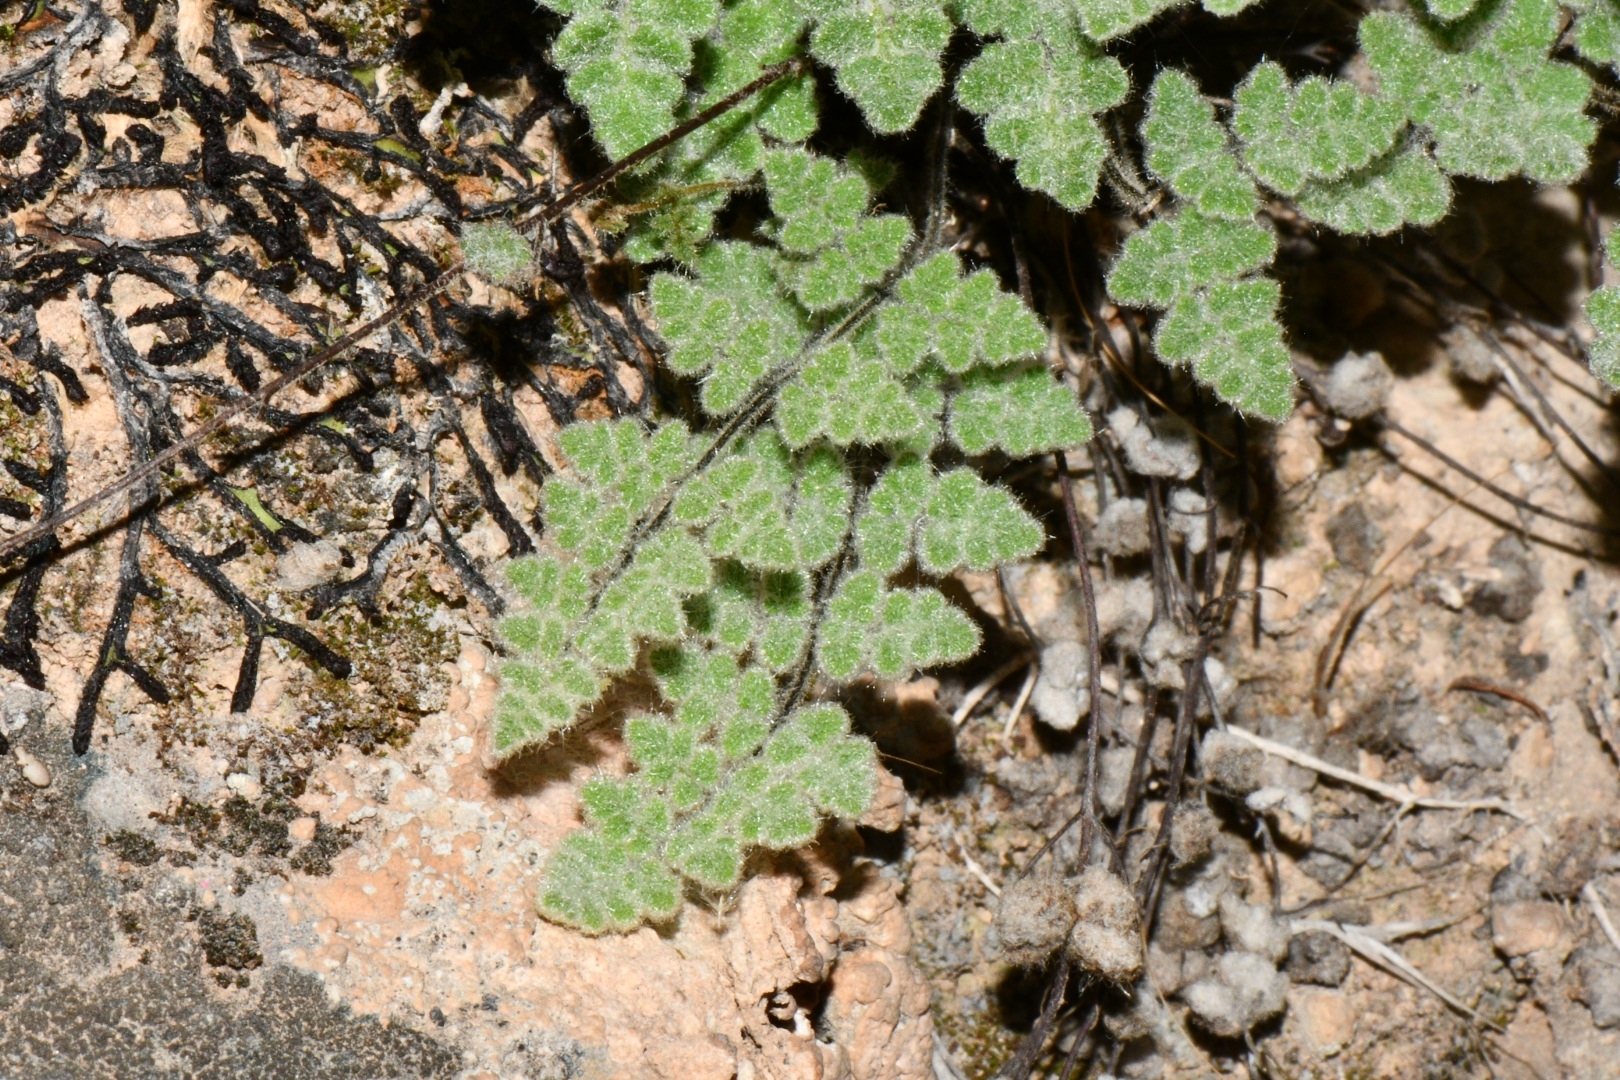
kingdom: Plantae
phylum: Tracheophyta
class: Polypodiopsida
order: Polypodiales
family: Pteridaceae
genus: Myriopteris
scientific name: Myriopteris parryi
